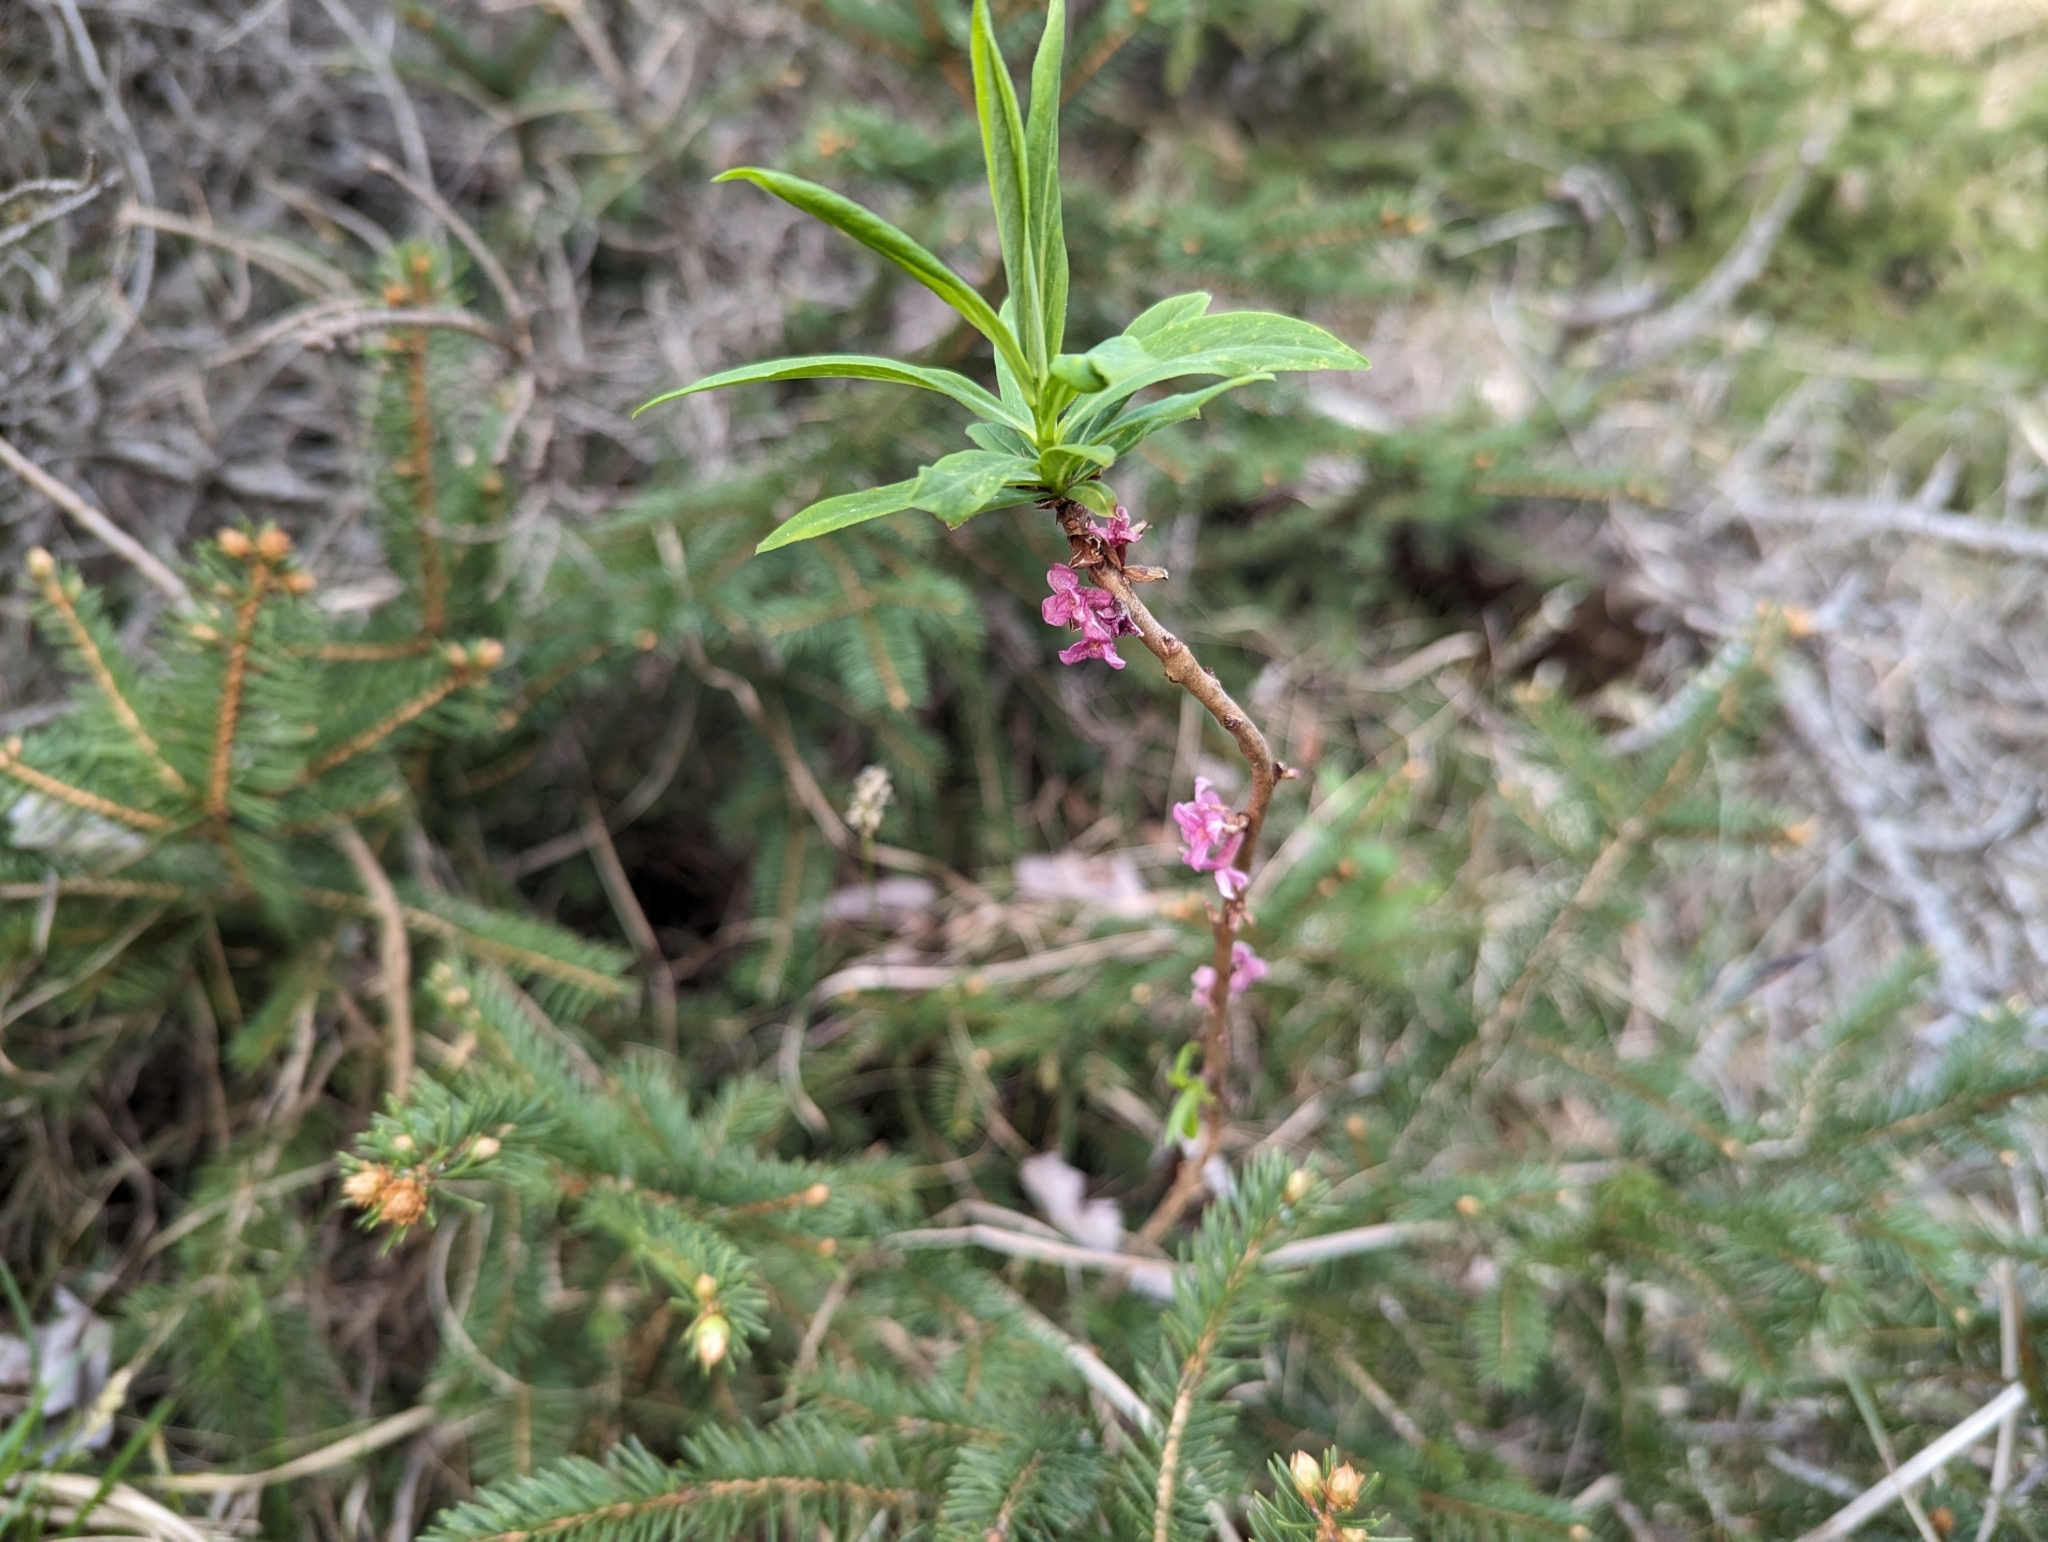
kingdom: Plantae
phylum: Tracheophyta
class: Magnoliopsida
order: Malvales
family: Thymelaeaceae
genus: Daphne
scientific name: Daphne mezereum
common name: Mezereon
